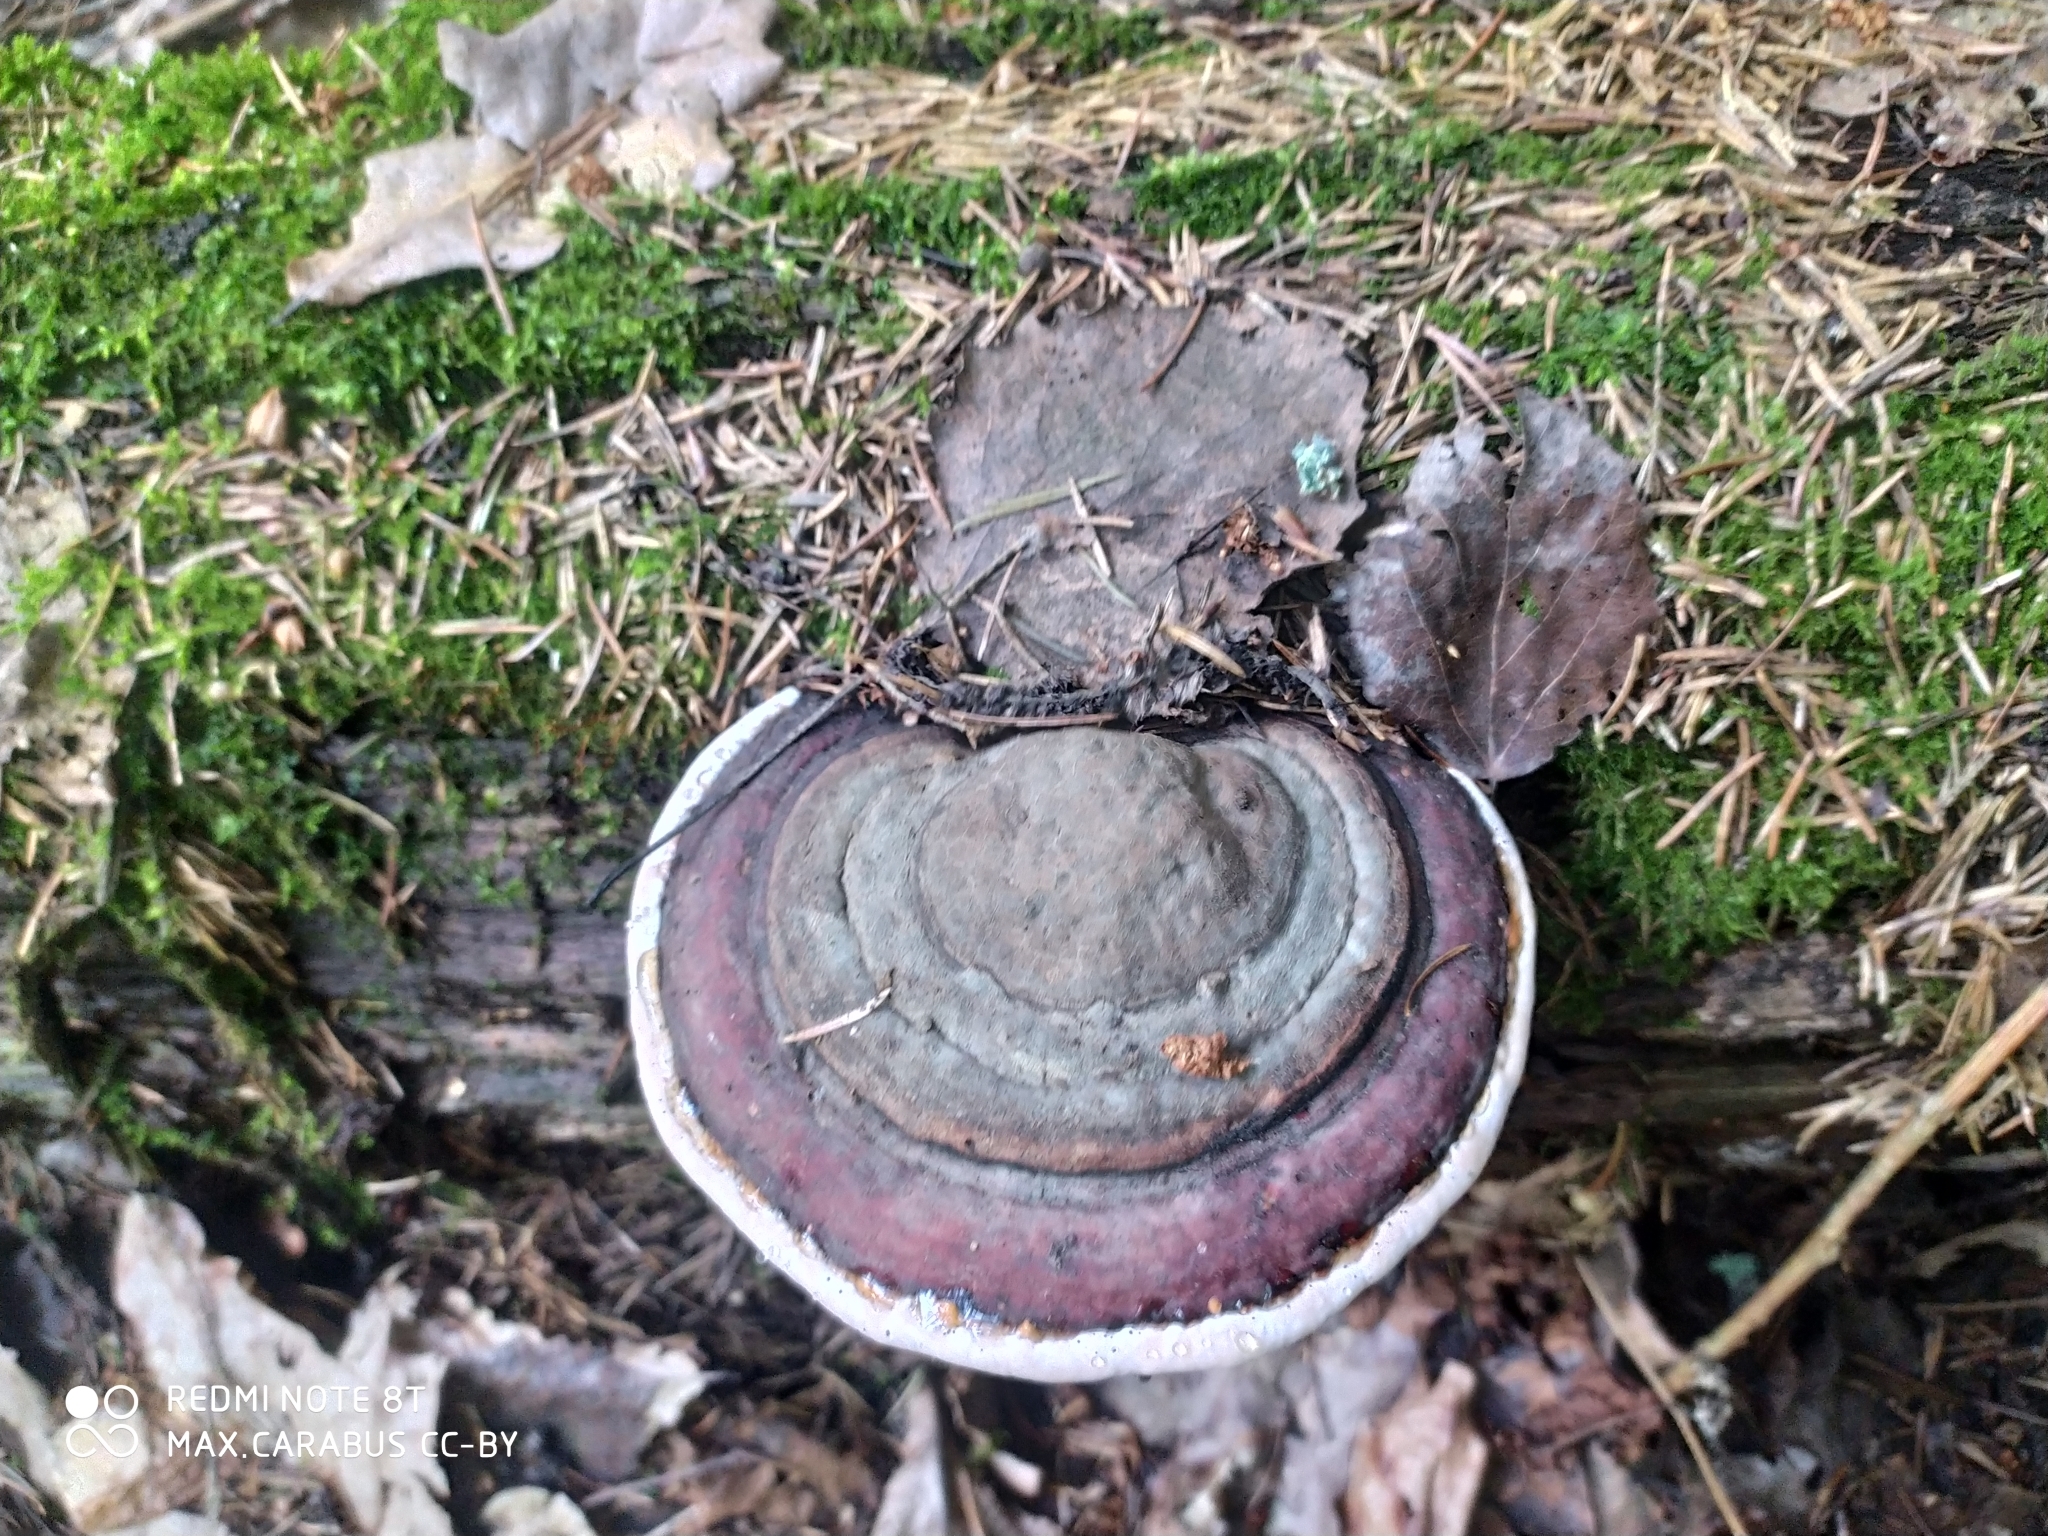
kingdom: Fungi
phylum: Basidiomycota
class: Agaricomycetes
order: Polyporales
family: Fomitopsidaceae
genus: Fomitopsis
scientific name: Fomitopsis pinicola
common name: Red-belted bracket
